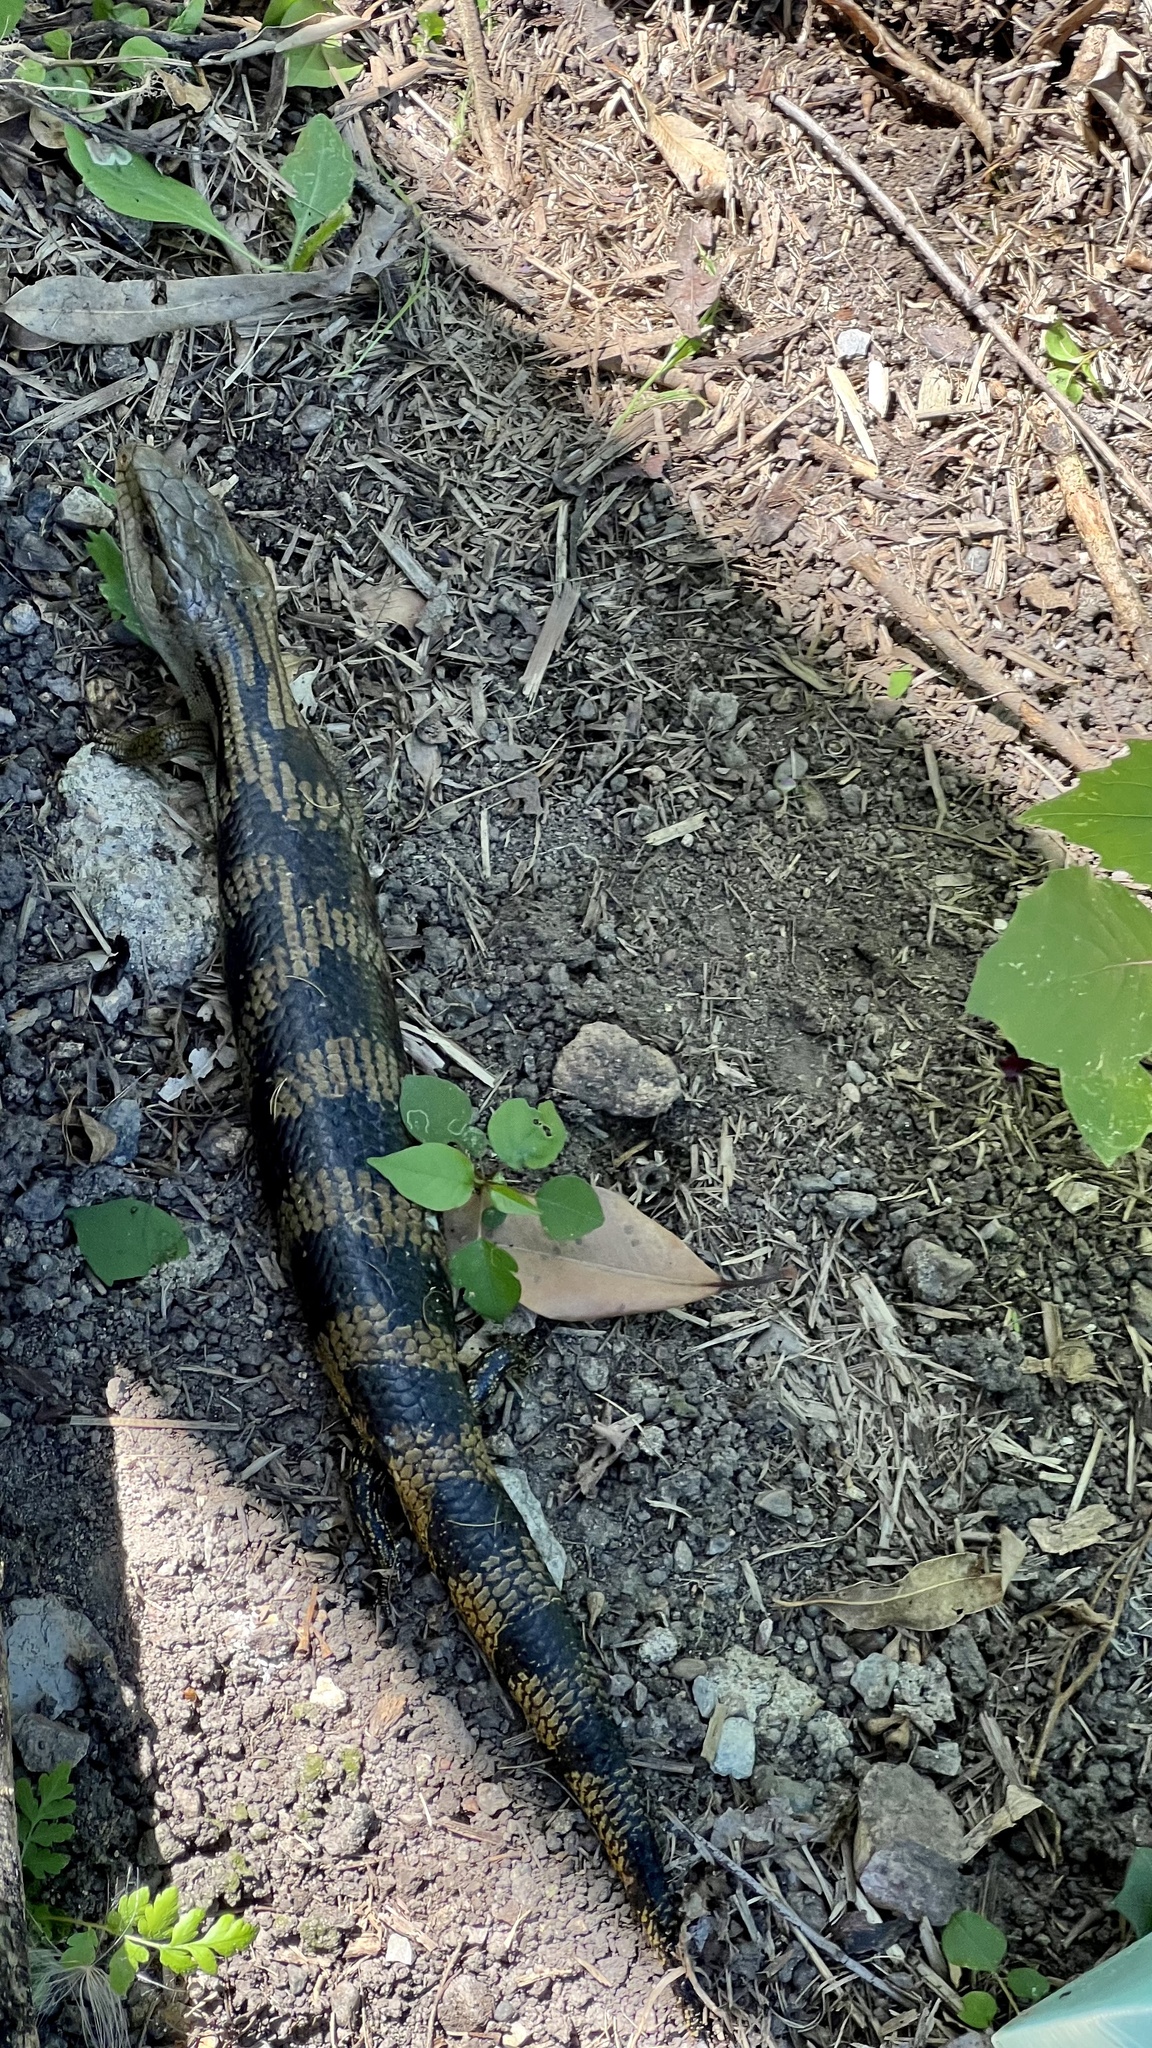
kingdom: Animalia
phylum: Chordata
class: Squamata
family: Scincidae
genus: Tiliqua
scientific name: Tiliqua scincoides
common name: Common bluetongue
